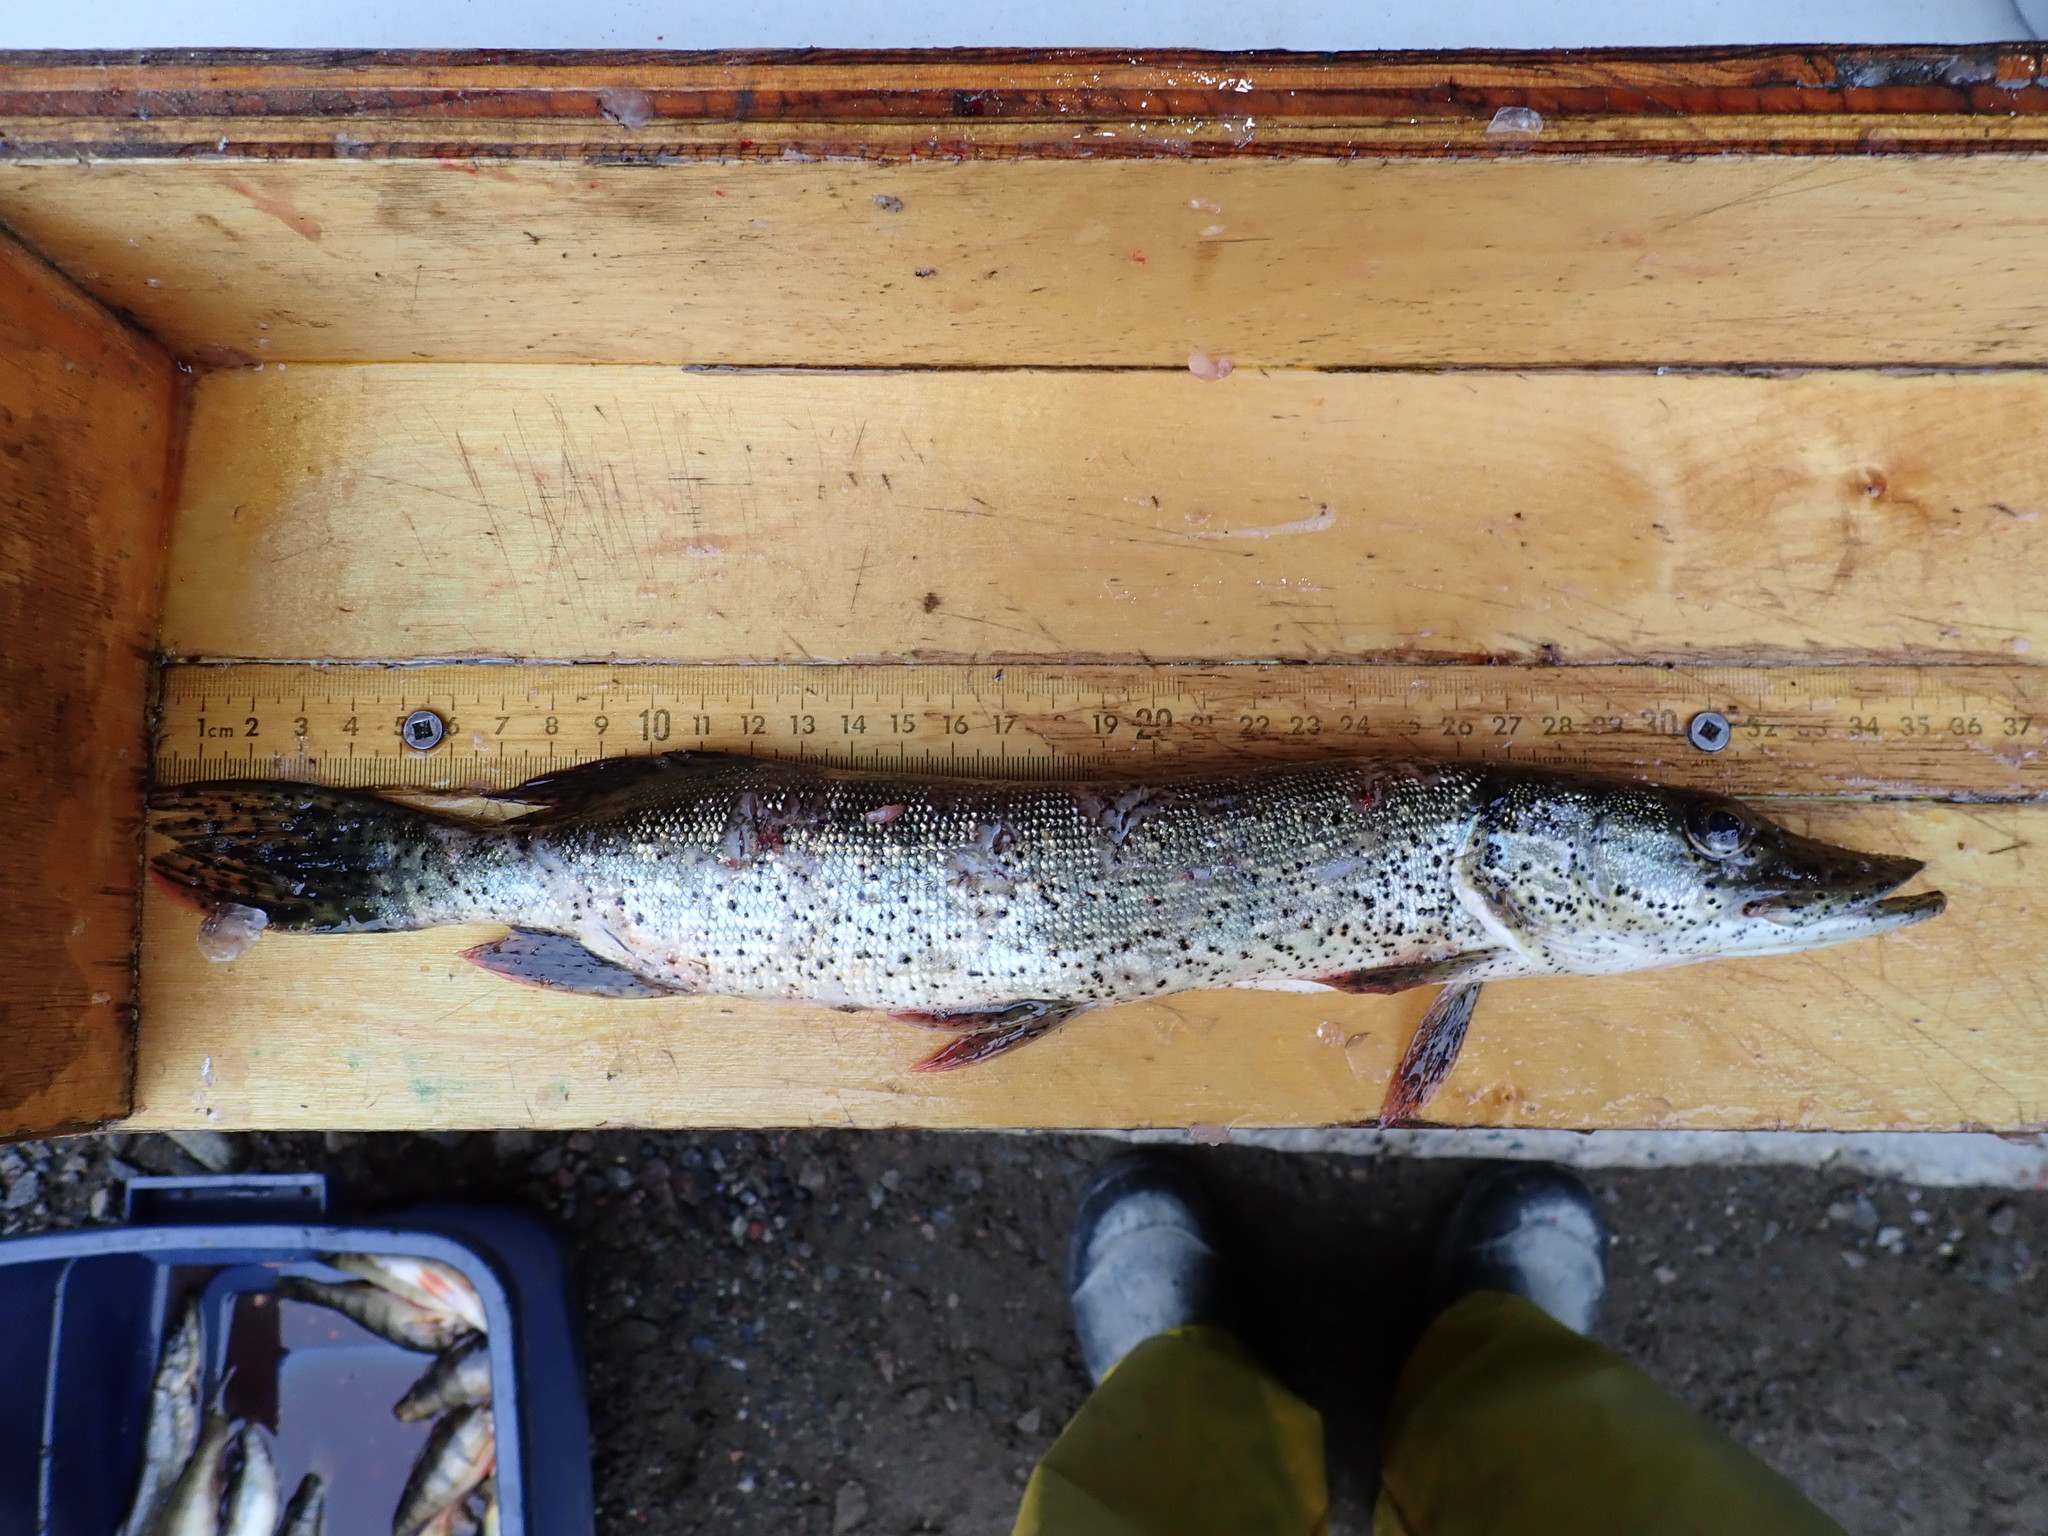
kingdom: Animalia
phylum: Chordata
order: Esociformes
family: Esocidae
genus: Esox
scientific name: Esox lucius
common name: Northern pike
